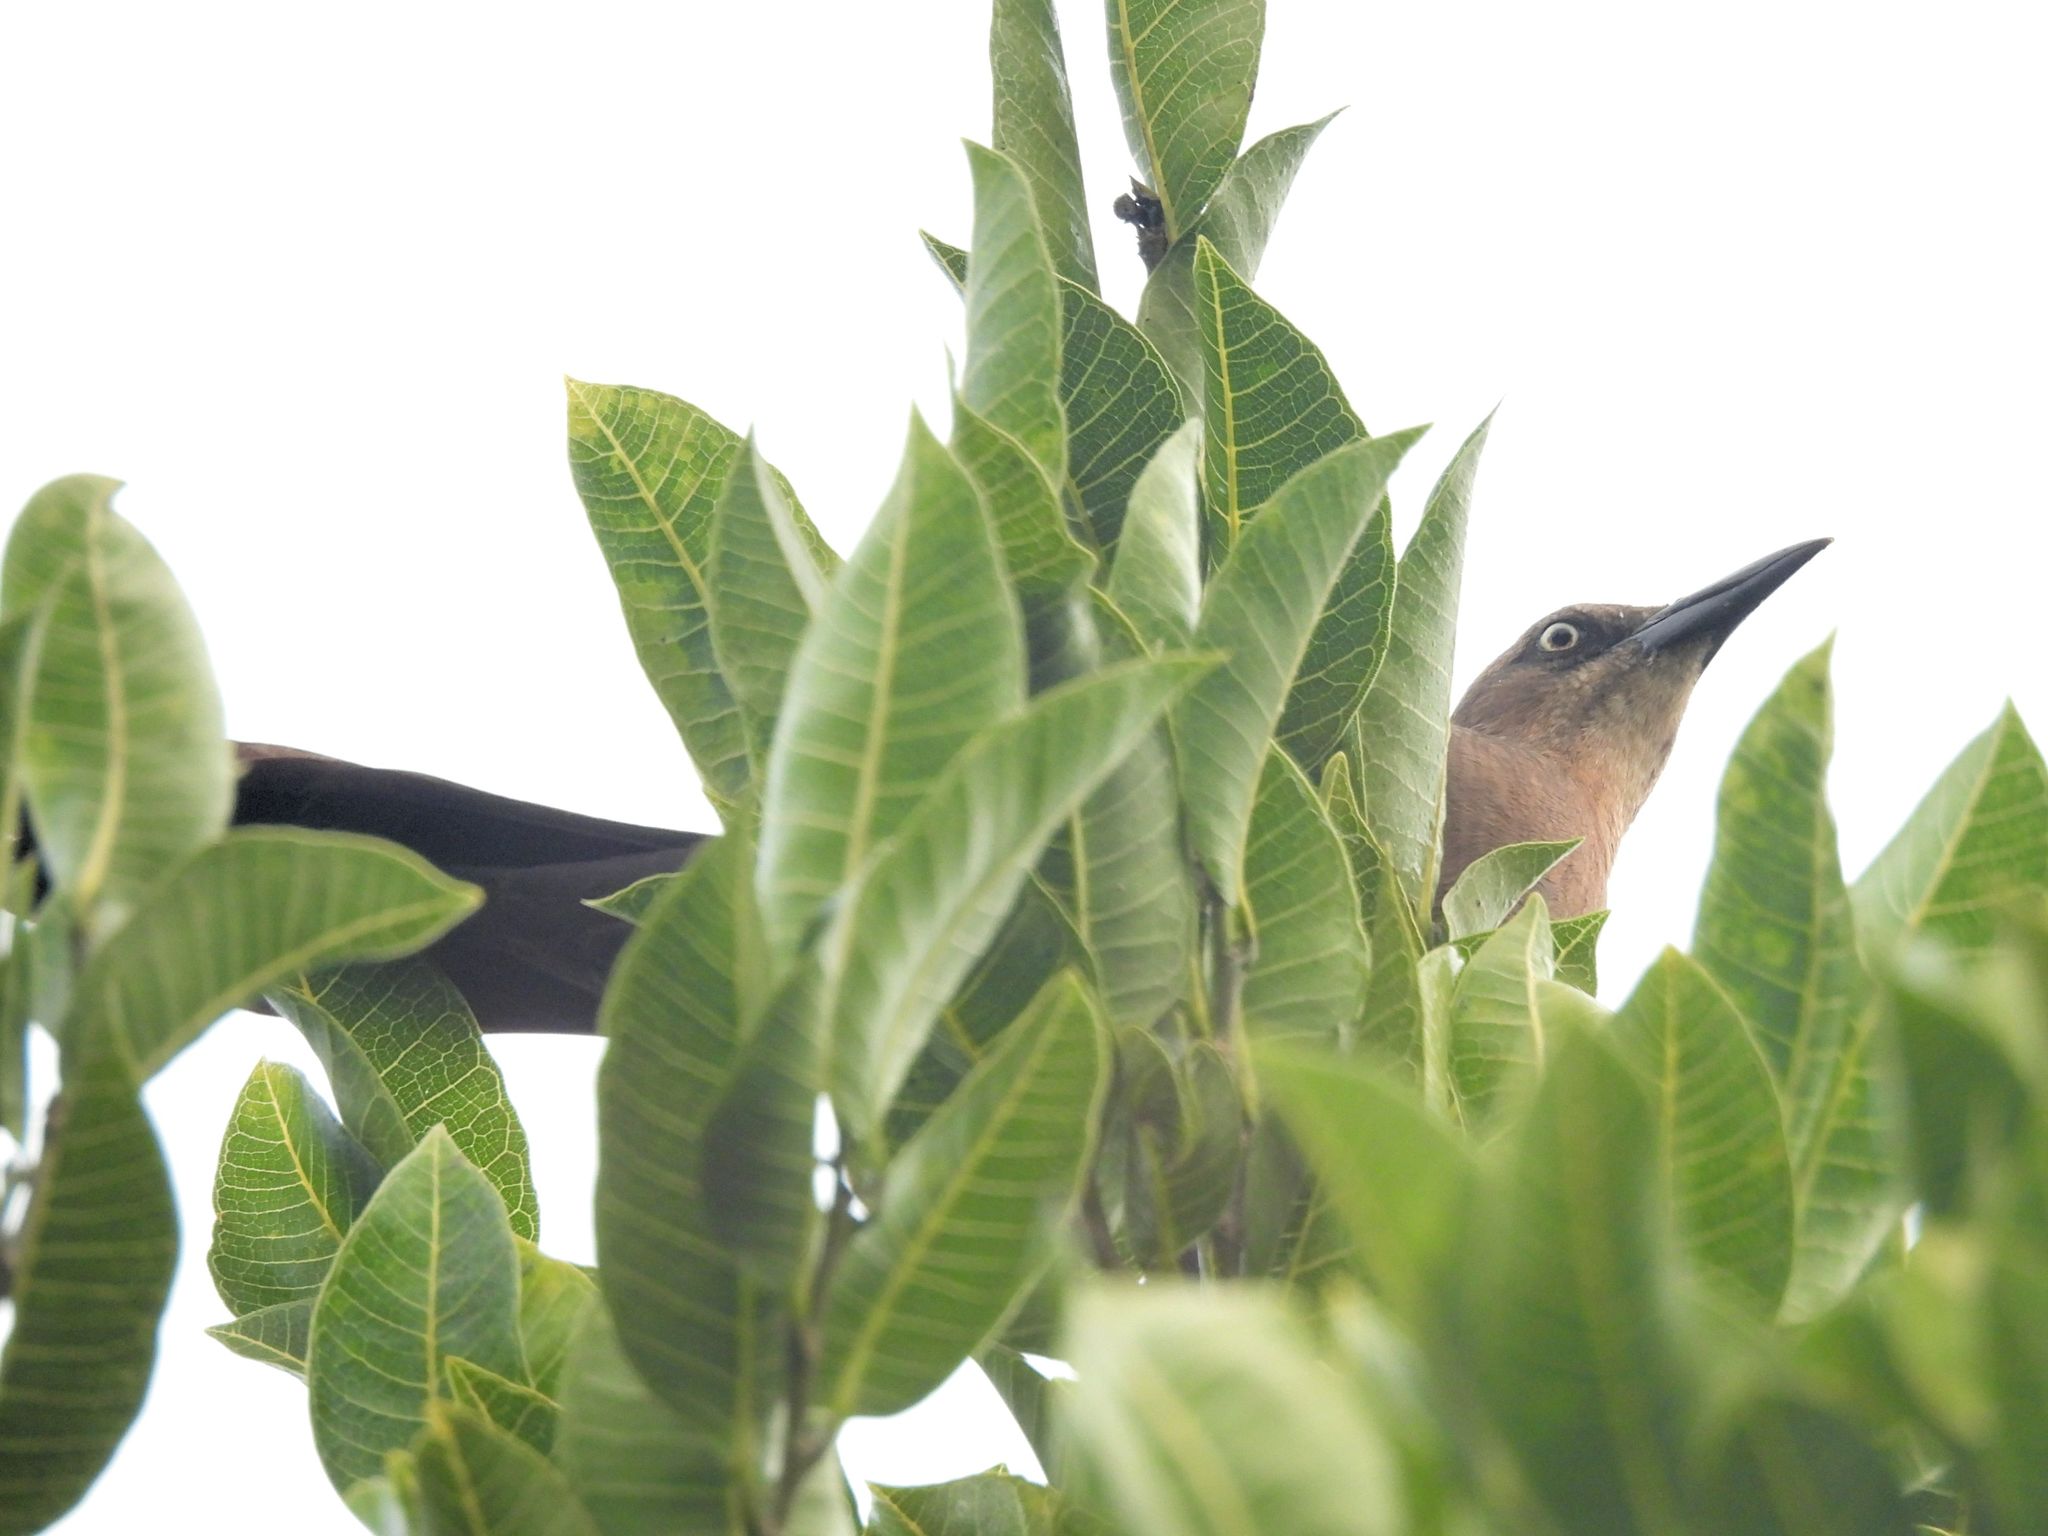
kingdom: Animalia
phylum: Chordata
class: Aves
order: Passeriformes
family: Icteridae
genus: Quiscalus
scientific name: Quiscalus mexicanus
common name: Great-tailed grackle
